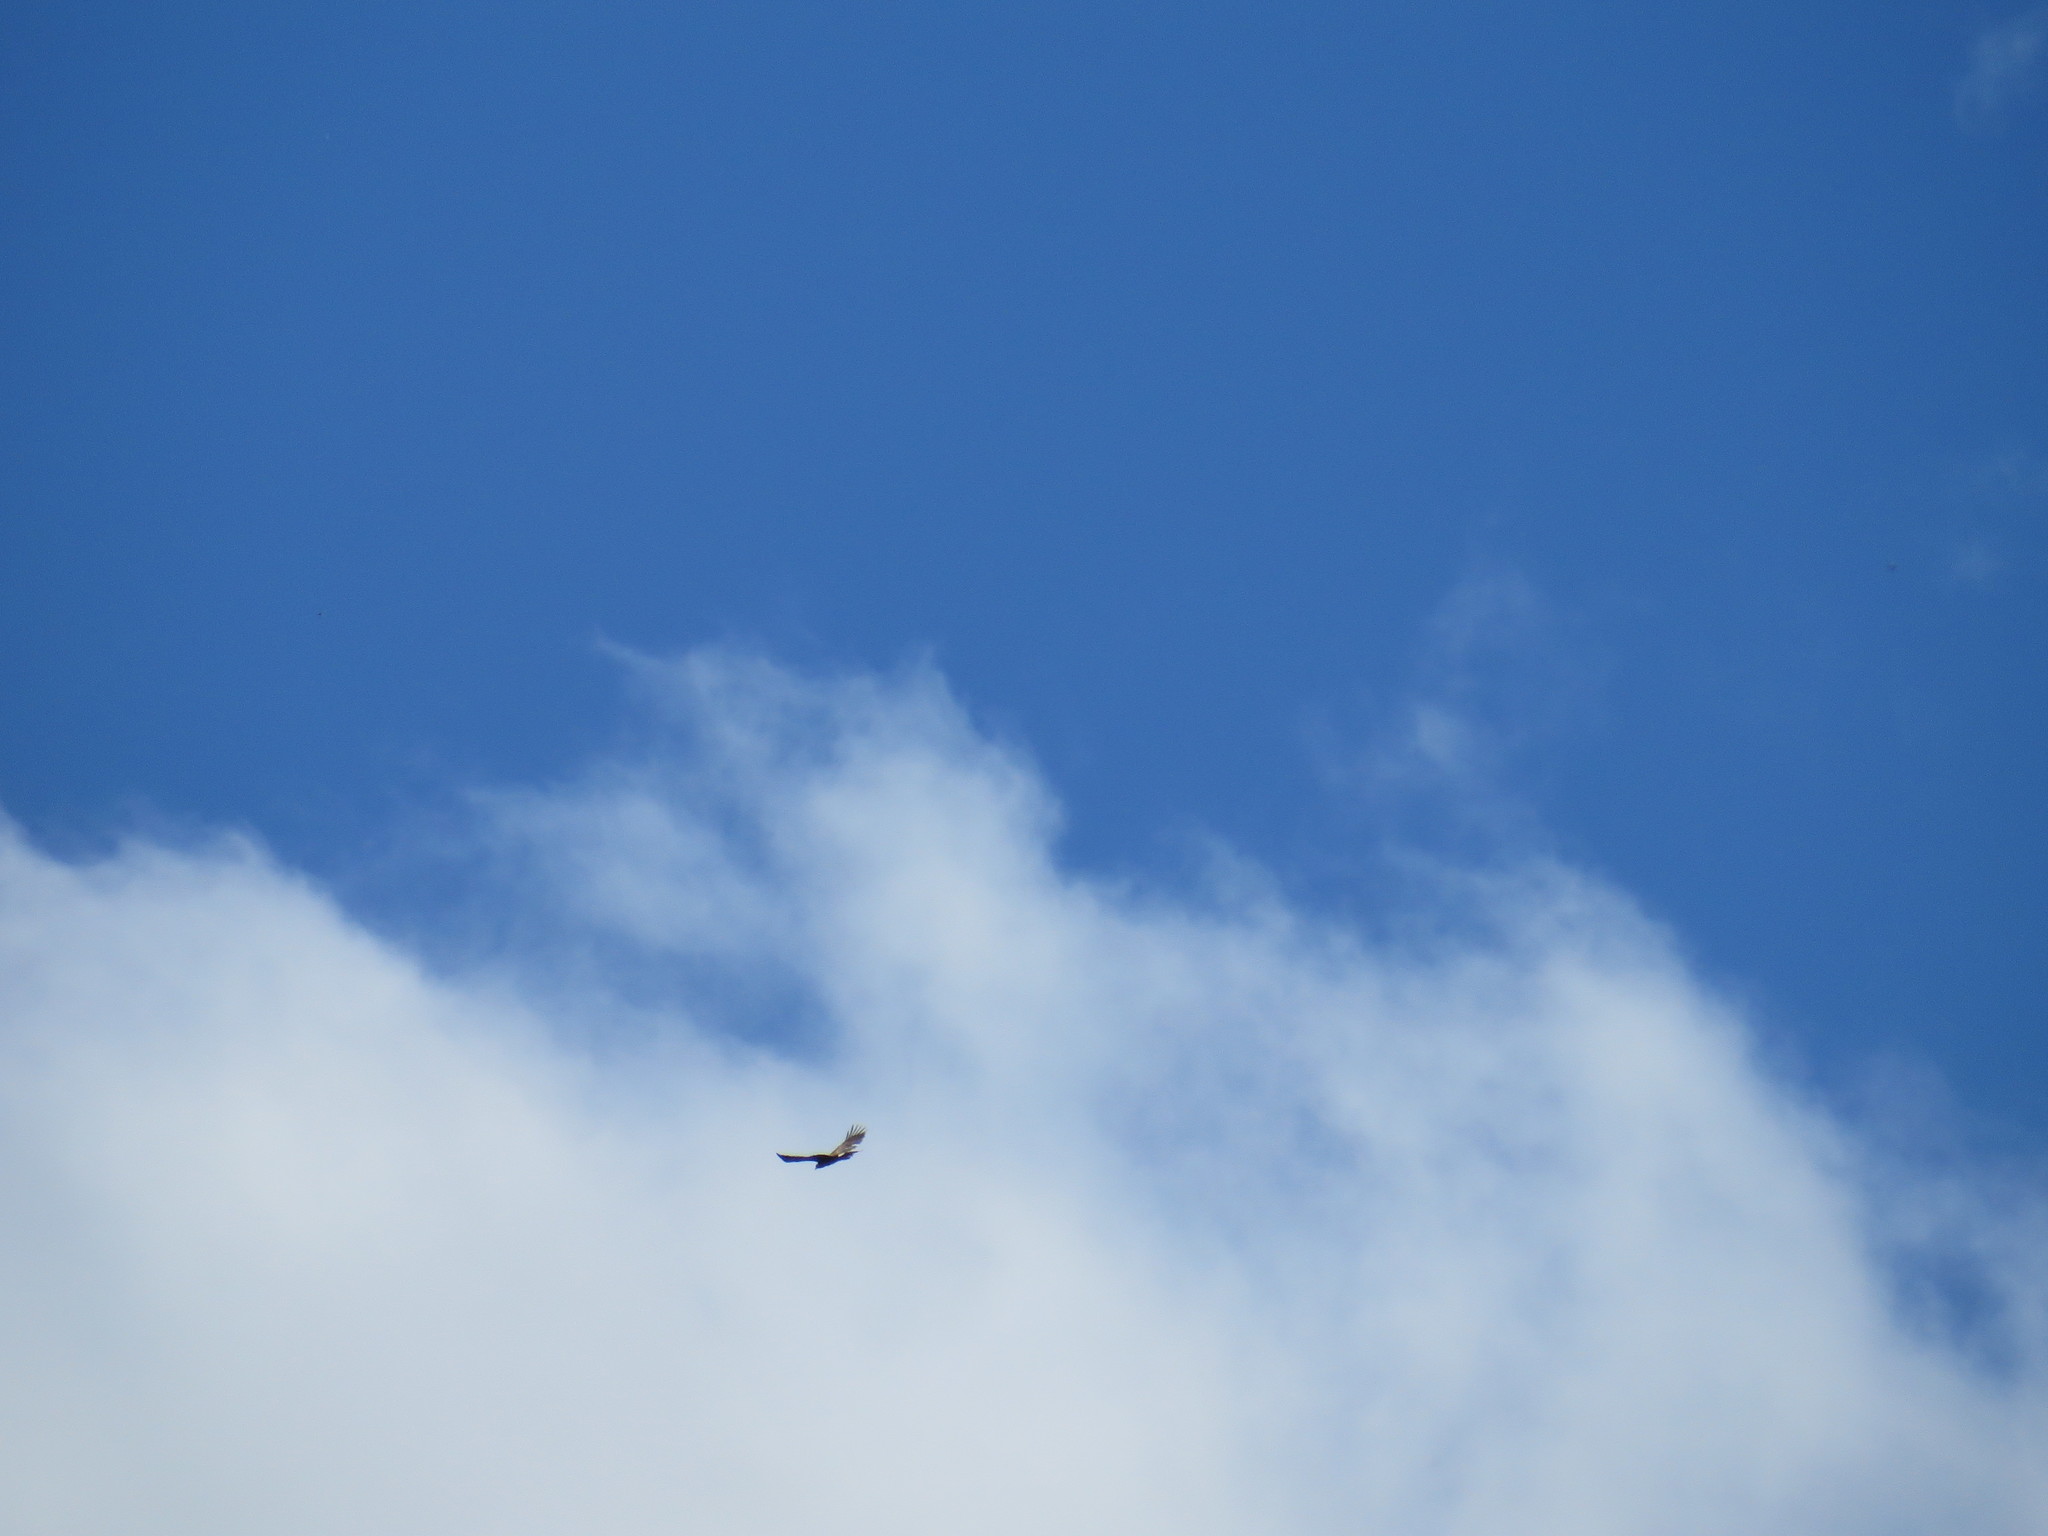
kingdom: Animalia
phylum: Chordata
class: Aves
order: Accipitriformes
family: Accipitridae
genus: Aquila
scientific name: Aquila chrysaetos
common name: Golden eagle
